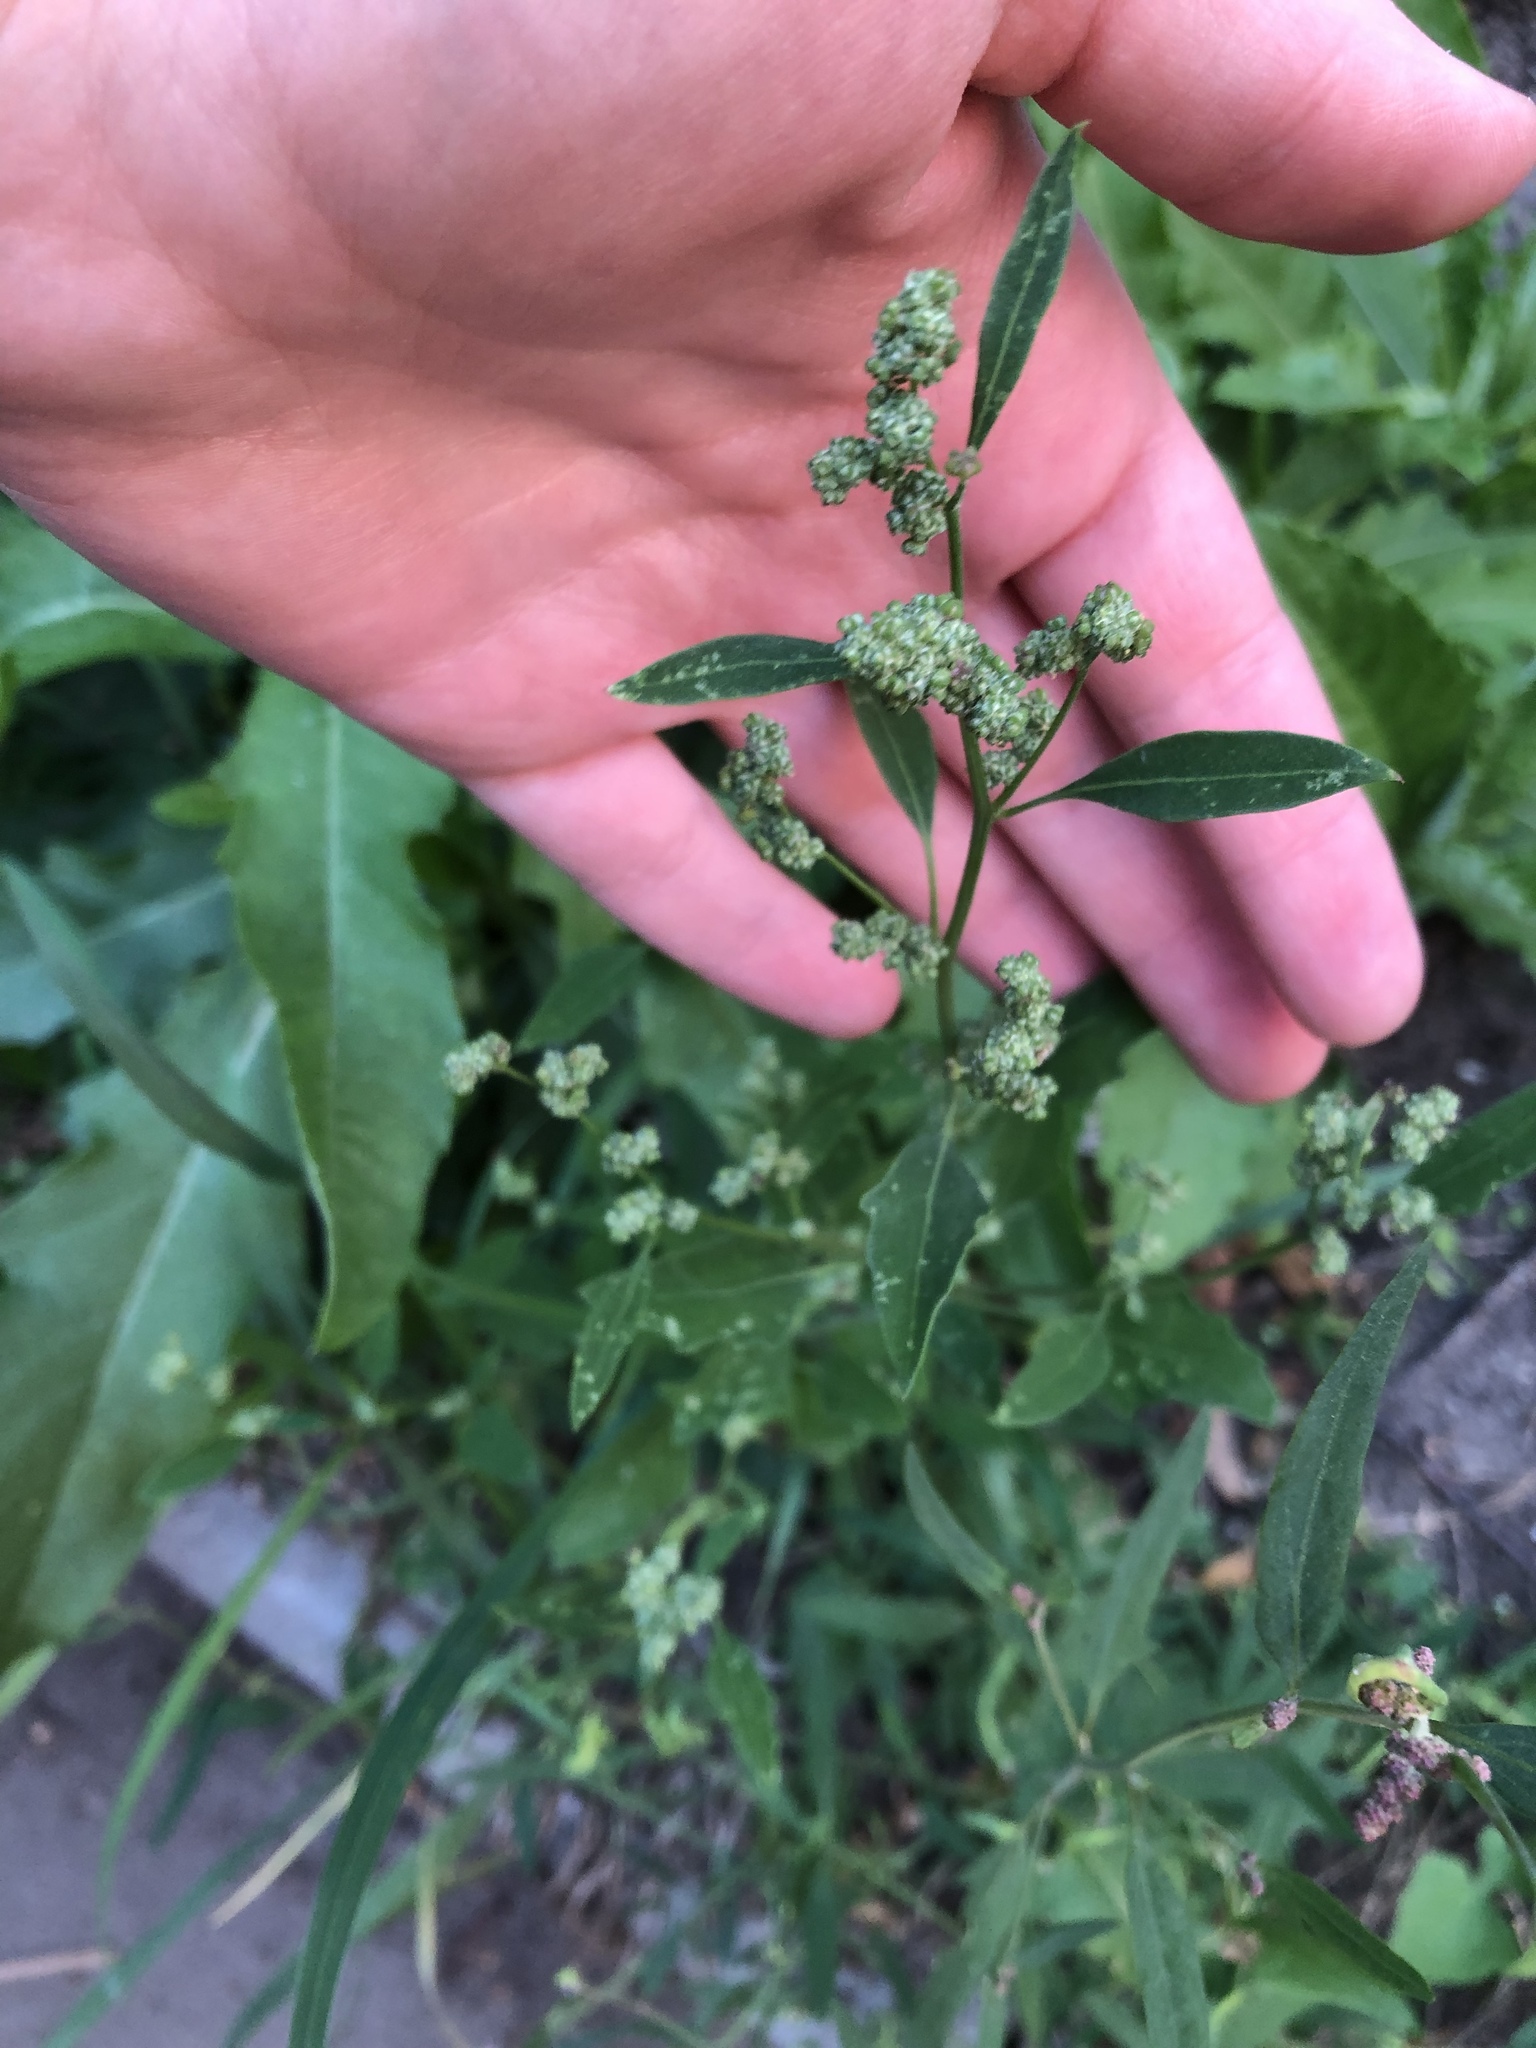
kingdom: Plantae
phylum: Tracheophyta
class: Magnoliopsida
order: Caryophyllales
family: Amaranthaceae
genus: Chenopodium
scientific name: Chenopodium album
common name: Fat-hen
